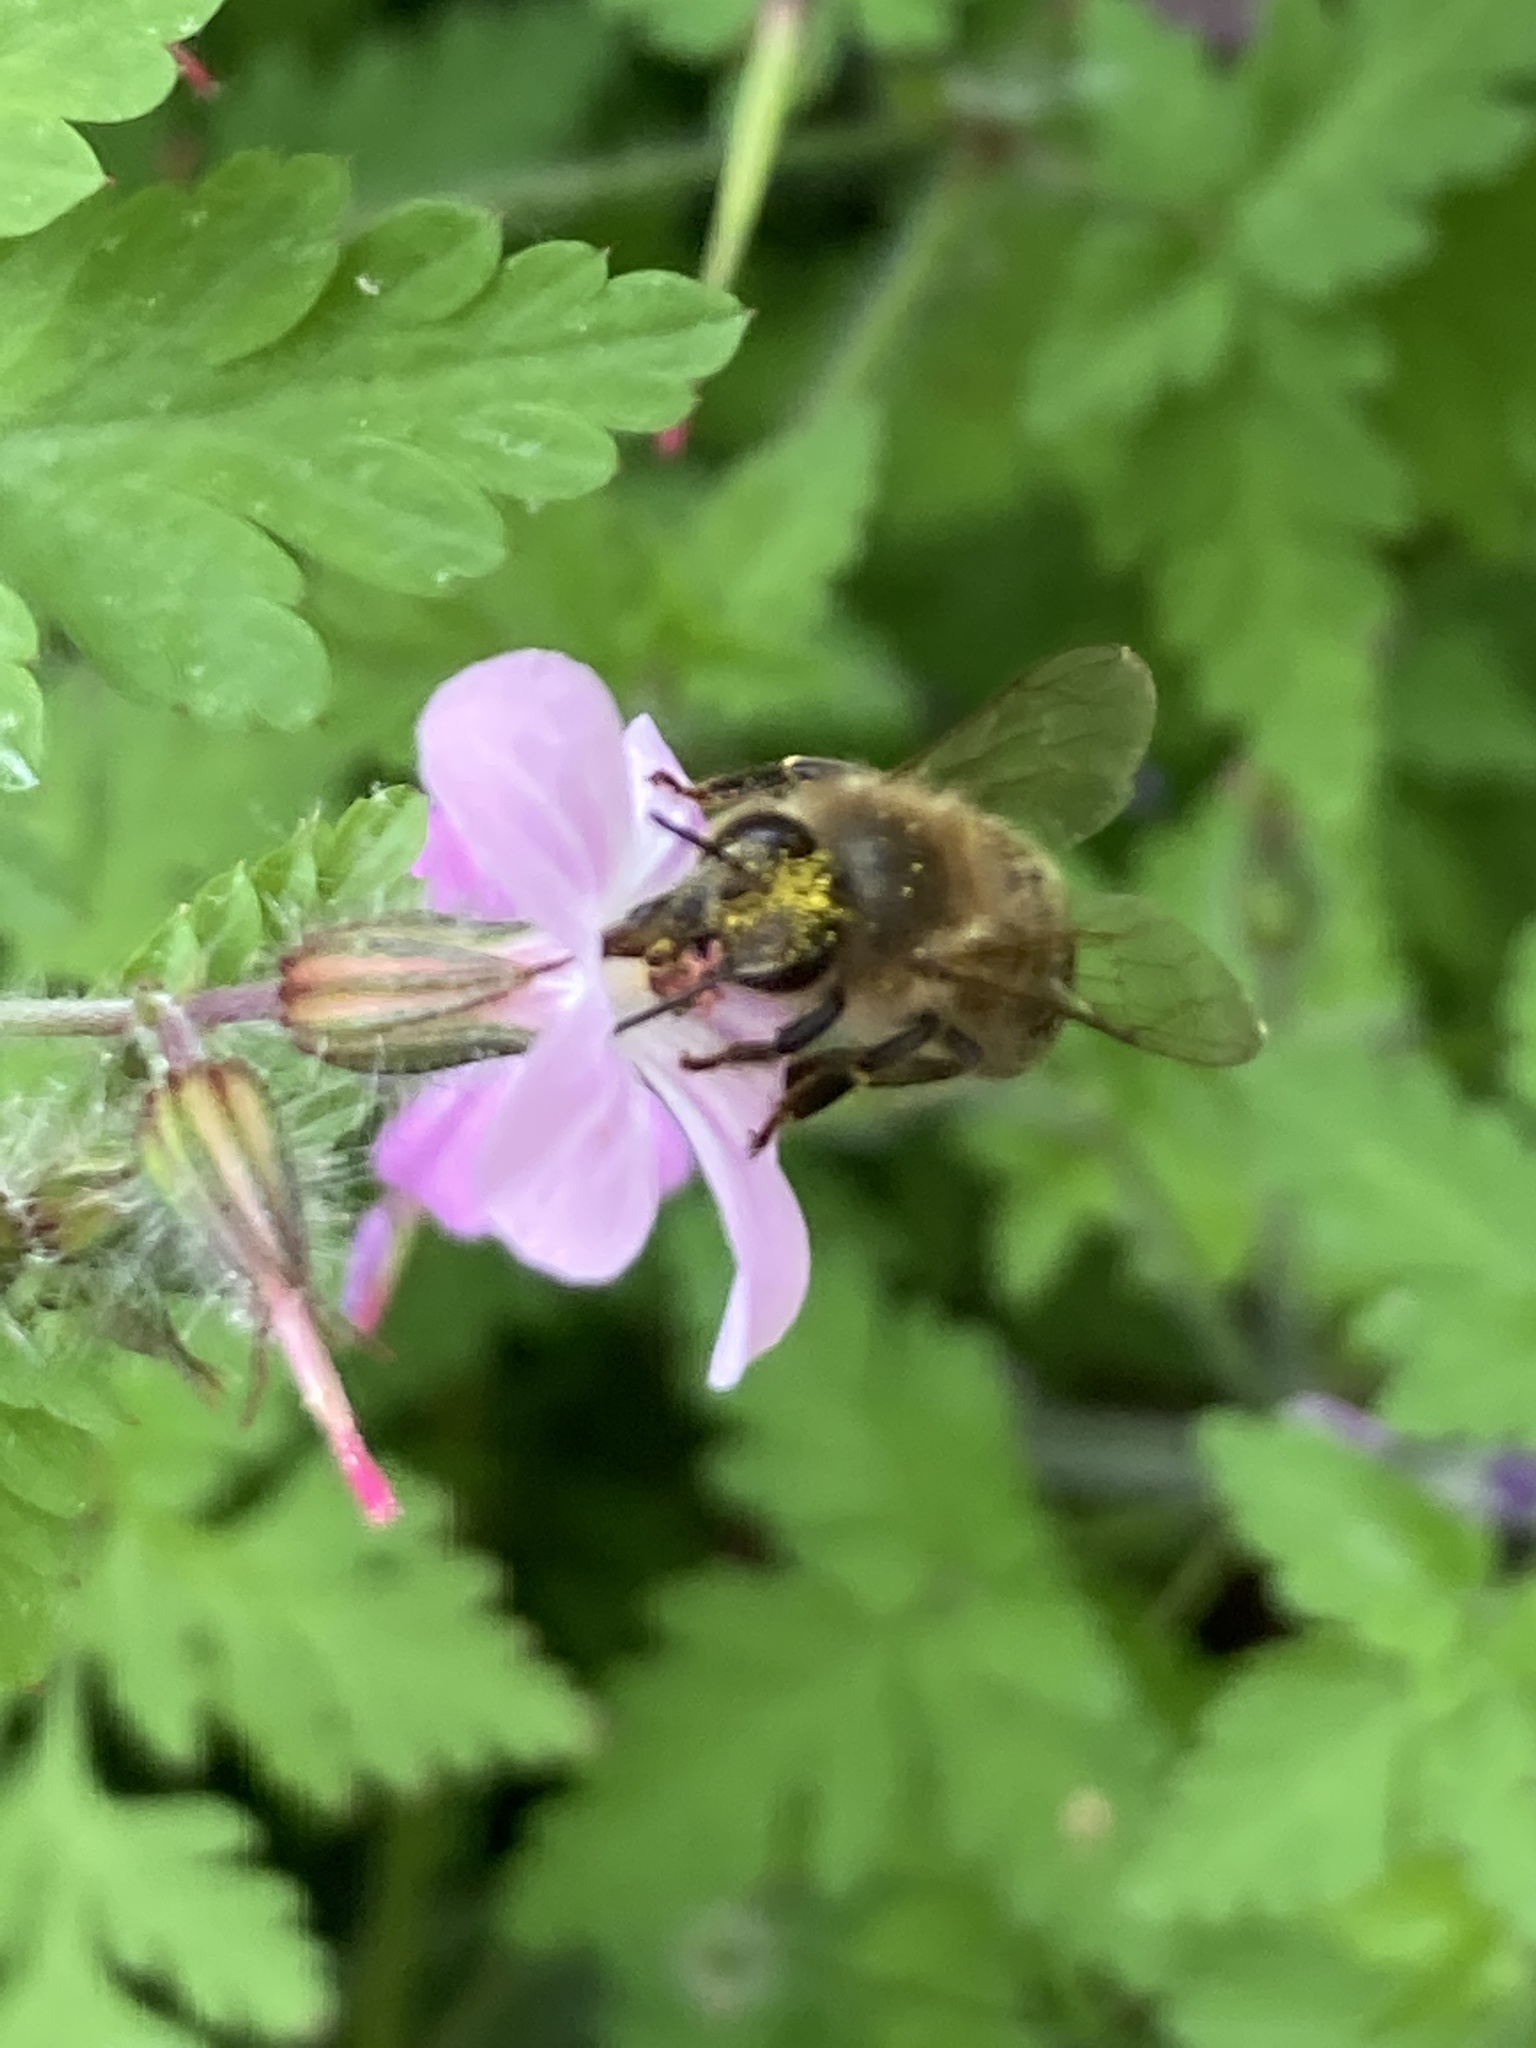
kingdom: Animalia
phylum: Arthropoda
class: Insecta
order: Hymenoptera
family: Apidae
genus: Apis
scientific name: Apis mellifera
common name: Honey bee
